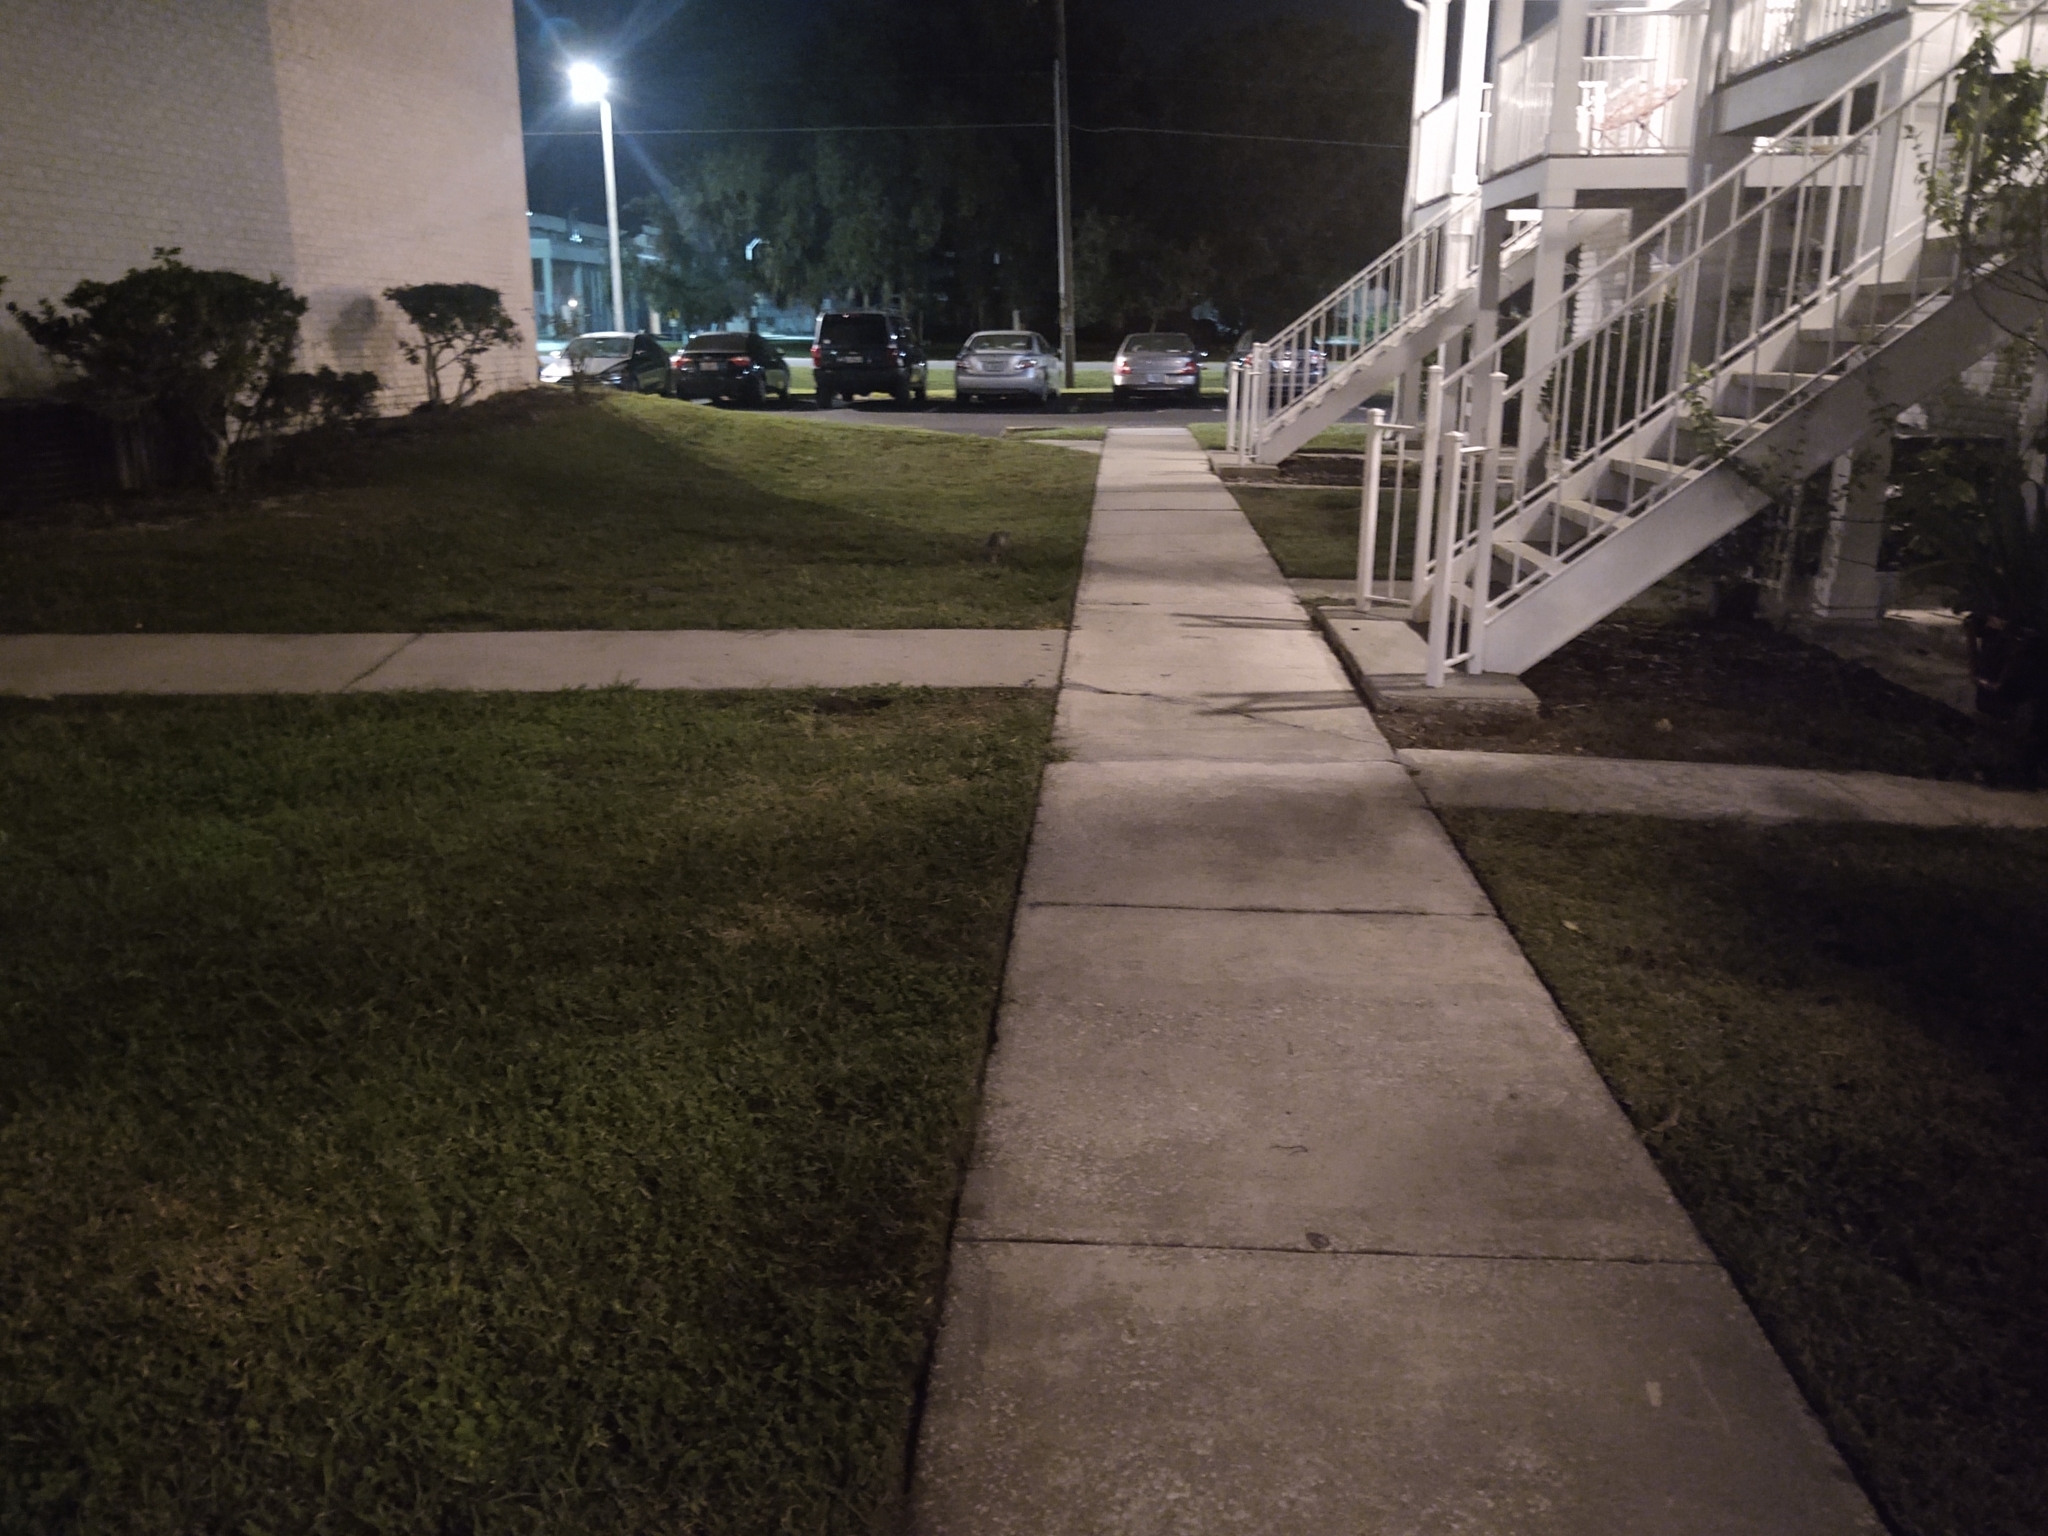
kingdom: Animalia
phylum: Chordata
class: Mammalia
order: Cingulata
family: Dasypodidae
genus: Dasypus
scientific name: Dasypus novemcinctus
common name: Nine-banded armadillo
